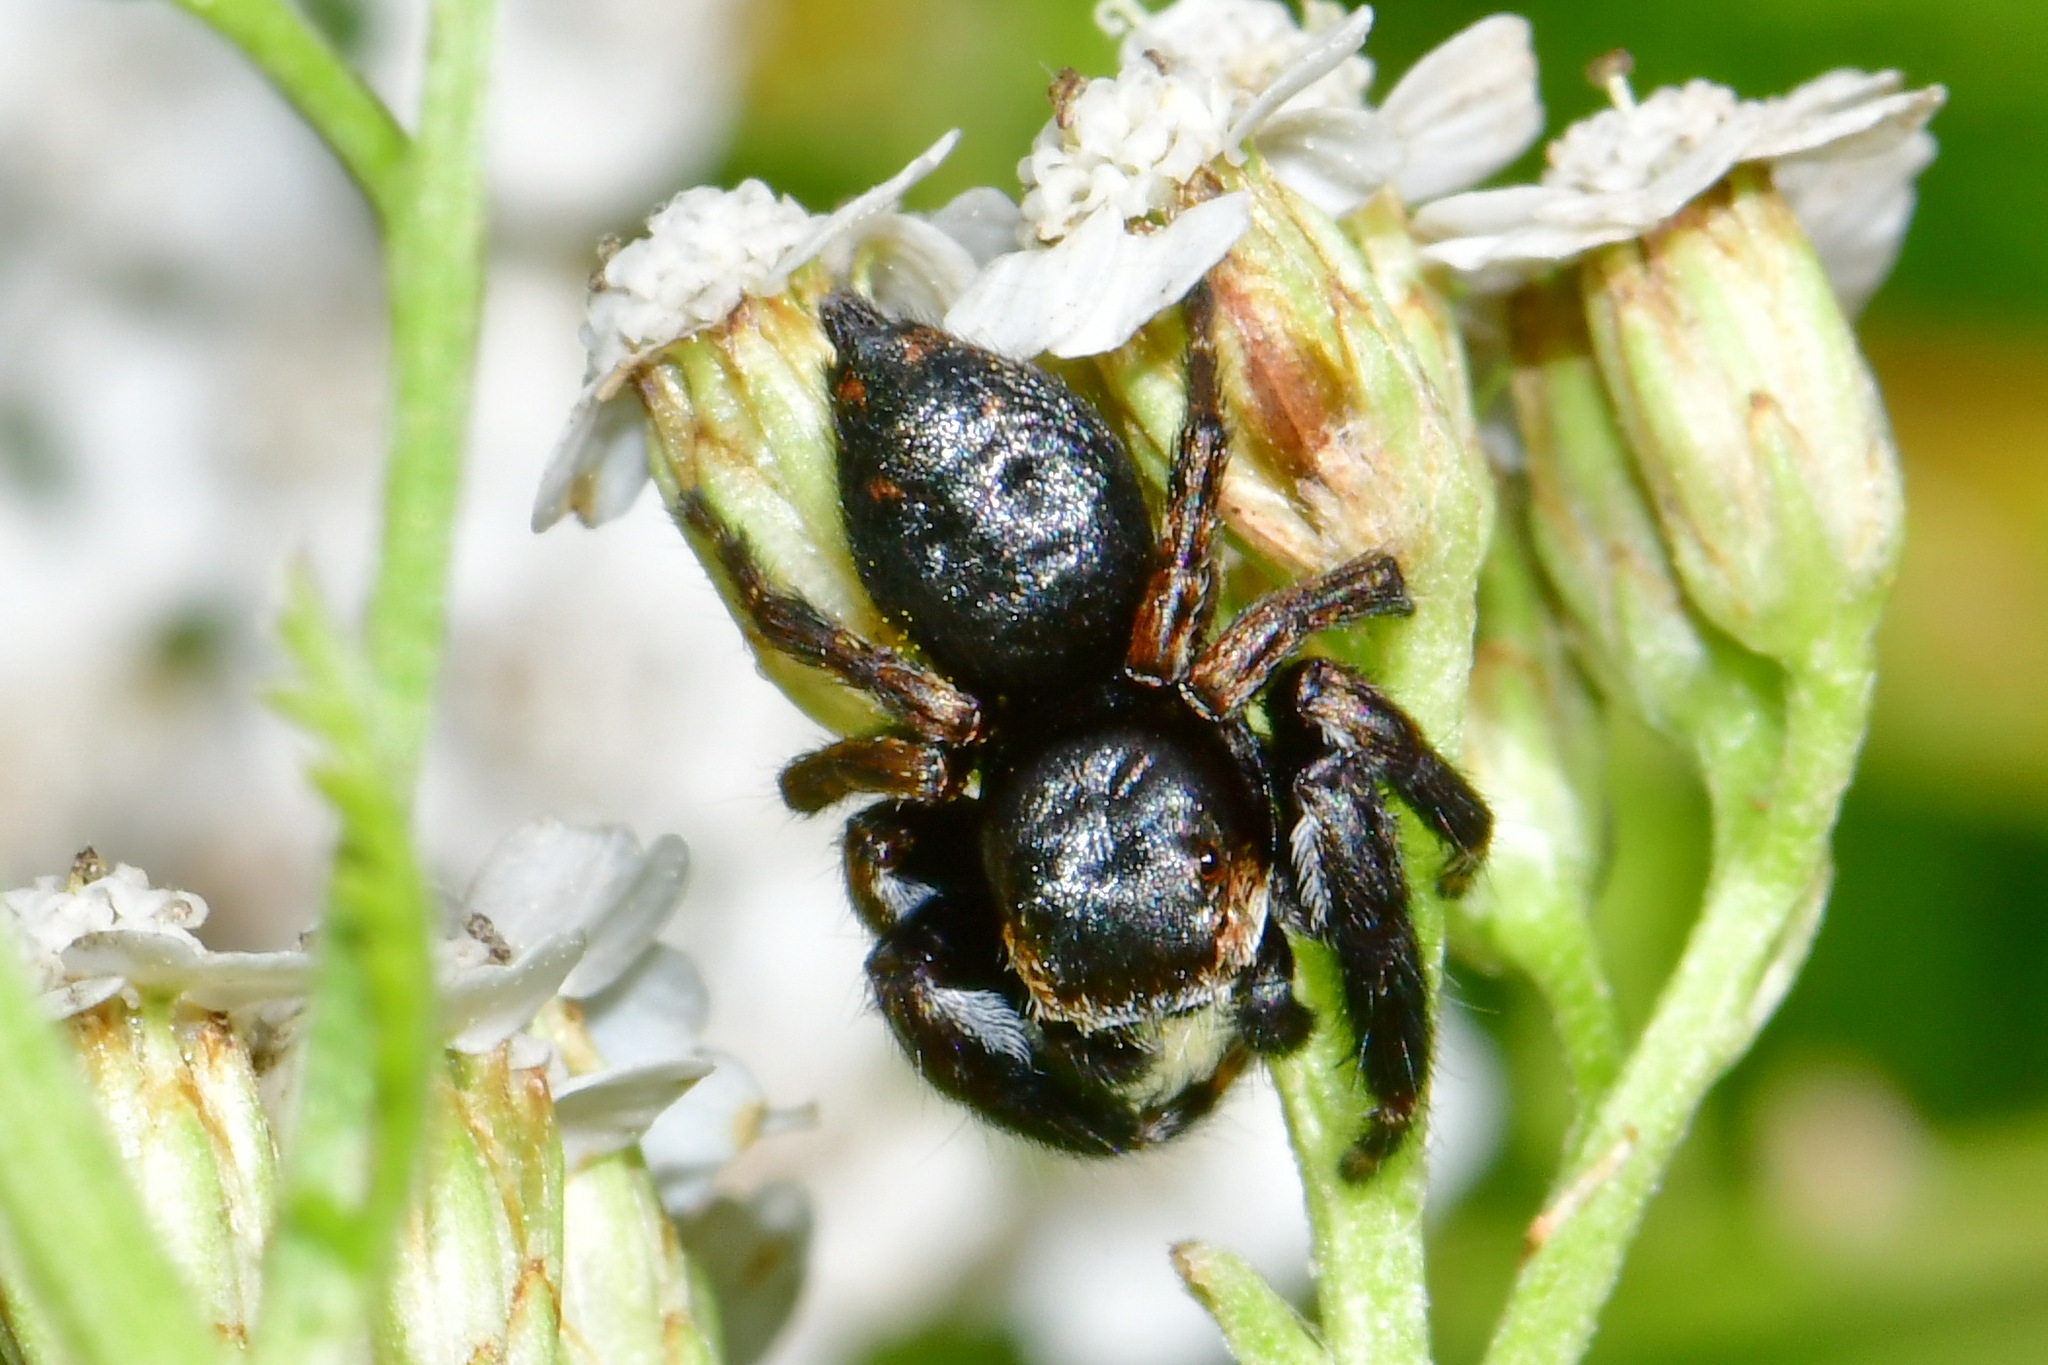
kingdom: Animalia
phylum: Arthropoda
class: Arachnida
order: Araneae
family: Salticidae
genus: Evarcha
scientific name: Evarcha arcuata
